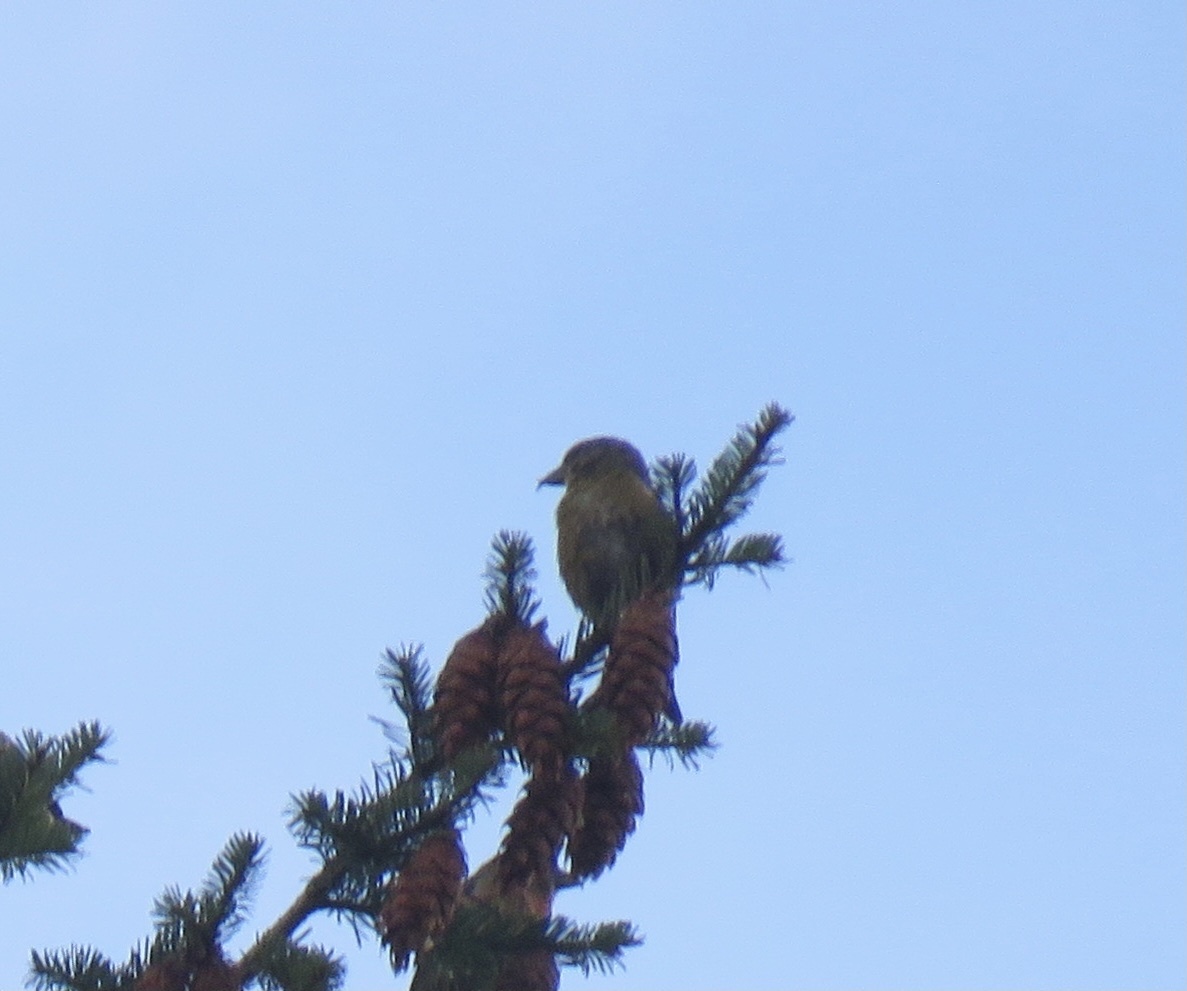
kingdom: Animalia
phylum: Chordata
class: Aves
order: Passeriformes
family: Fringillidae
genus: Loxia
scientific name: Loxia curvirostra
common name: Red crossbill
